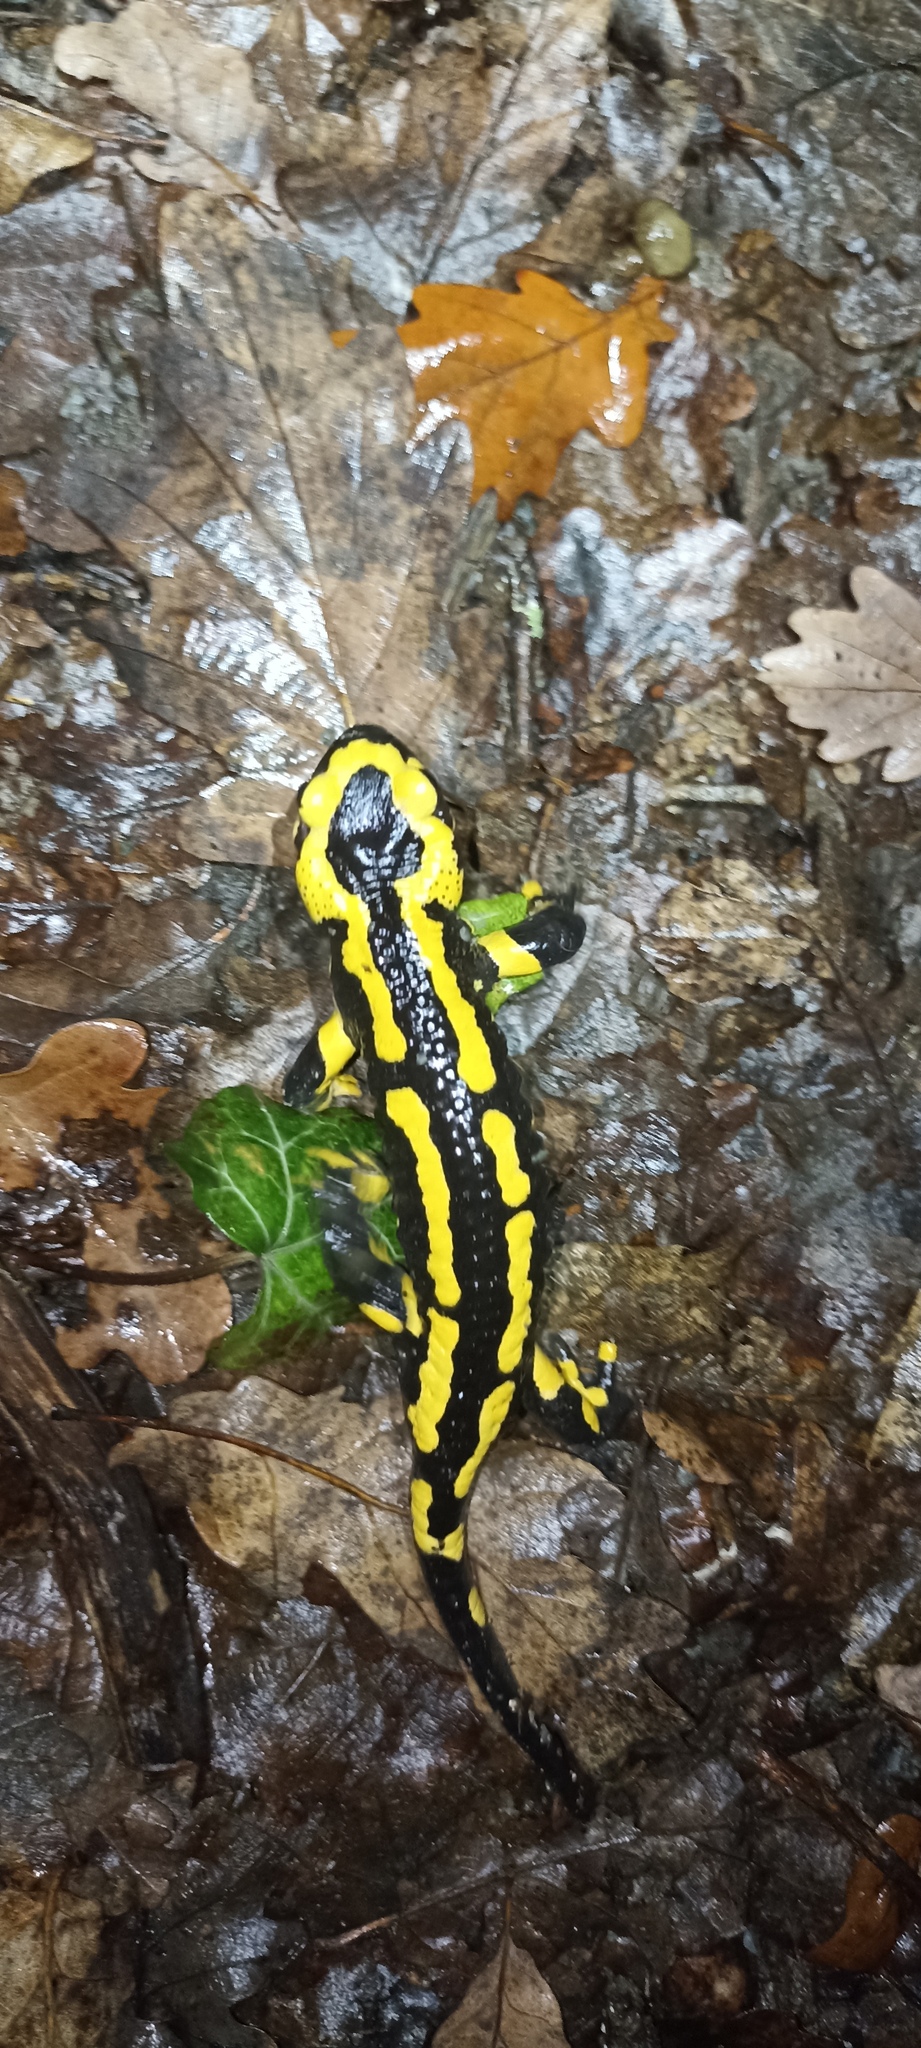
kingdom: Animalia
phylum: Chordata
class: Amphibia
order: Caudata
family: Salamandridae
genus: Salamandra
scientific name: Salamandra salamandra
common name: Fire salamander
